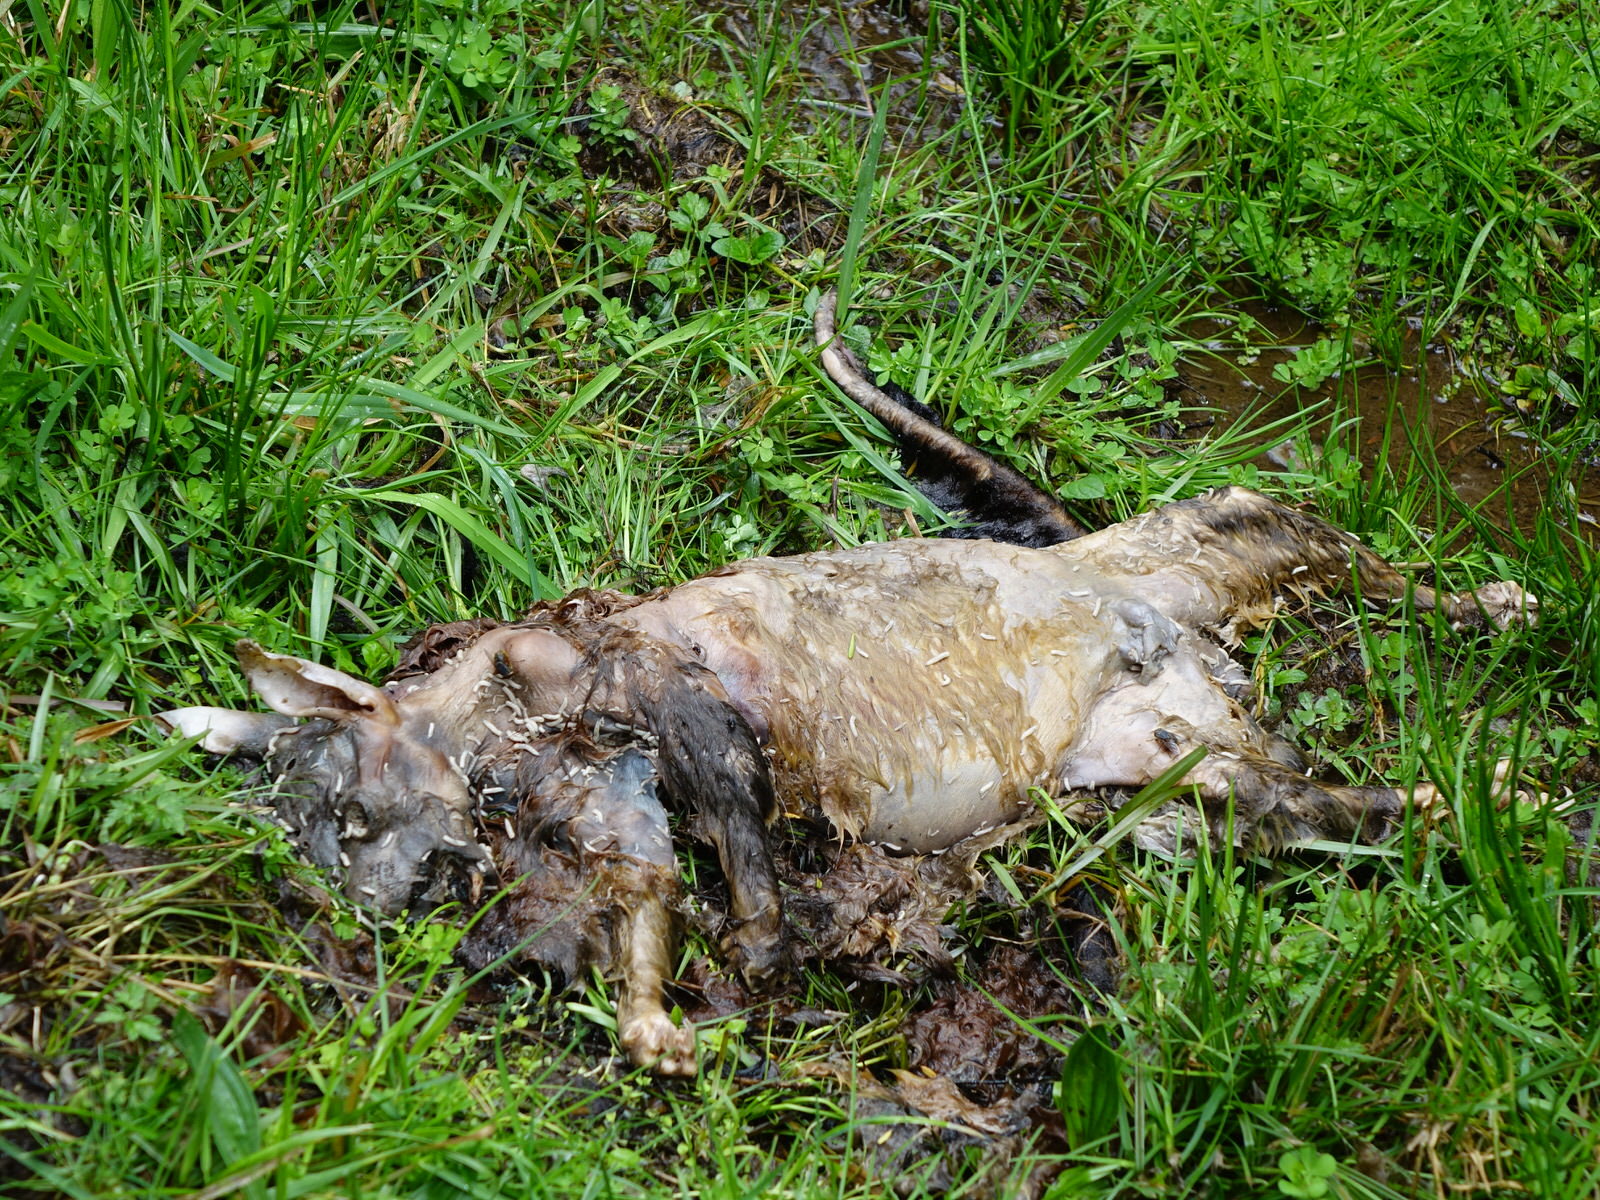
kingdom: Animalia
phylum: Chordata
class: Mammalia
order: Diprotodontia
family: Phalangeridae
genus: Trichosurus
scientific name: Trichosurus vulpecula
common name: Common brushtail
